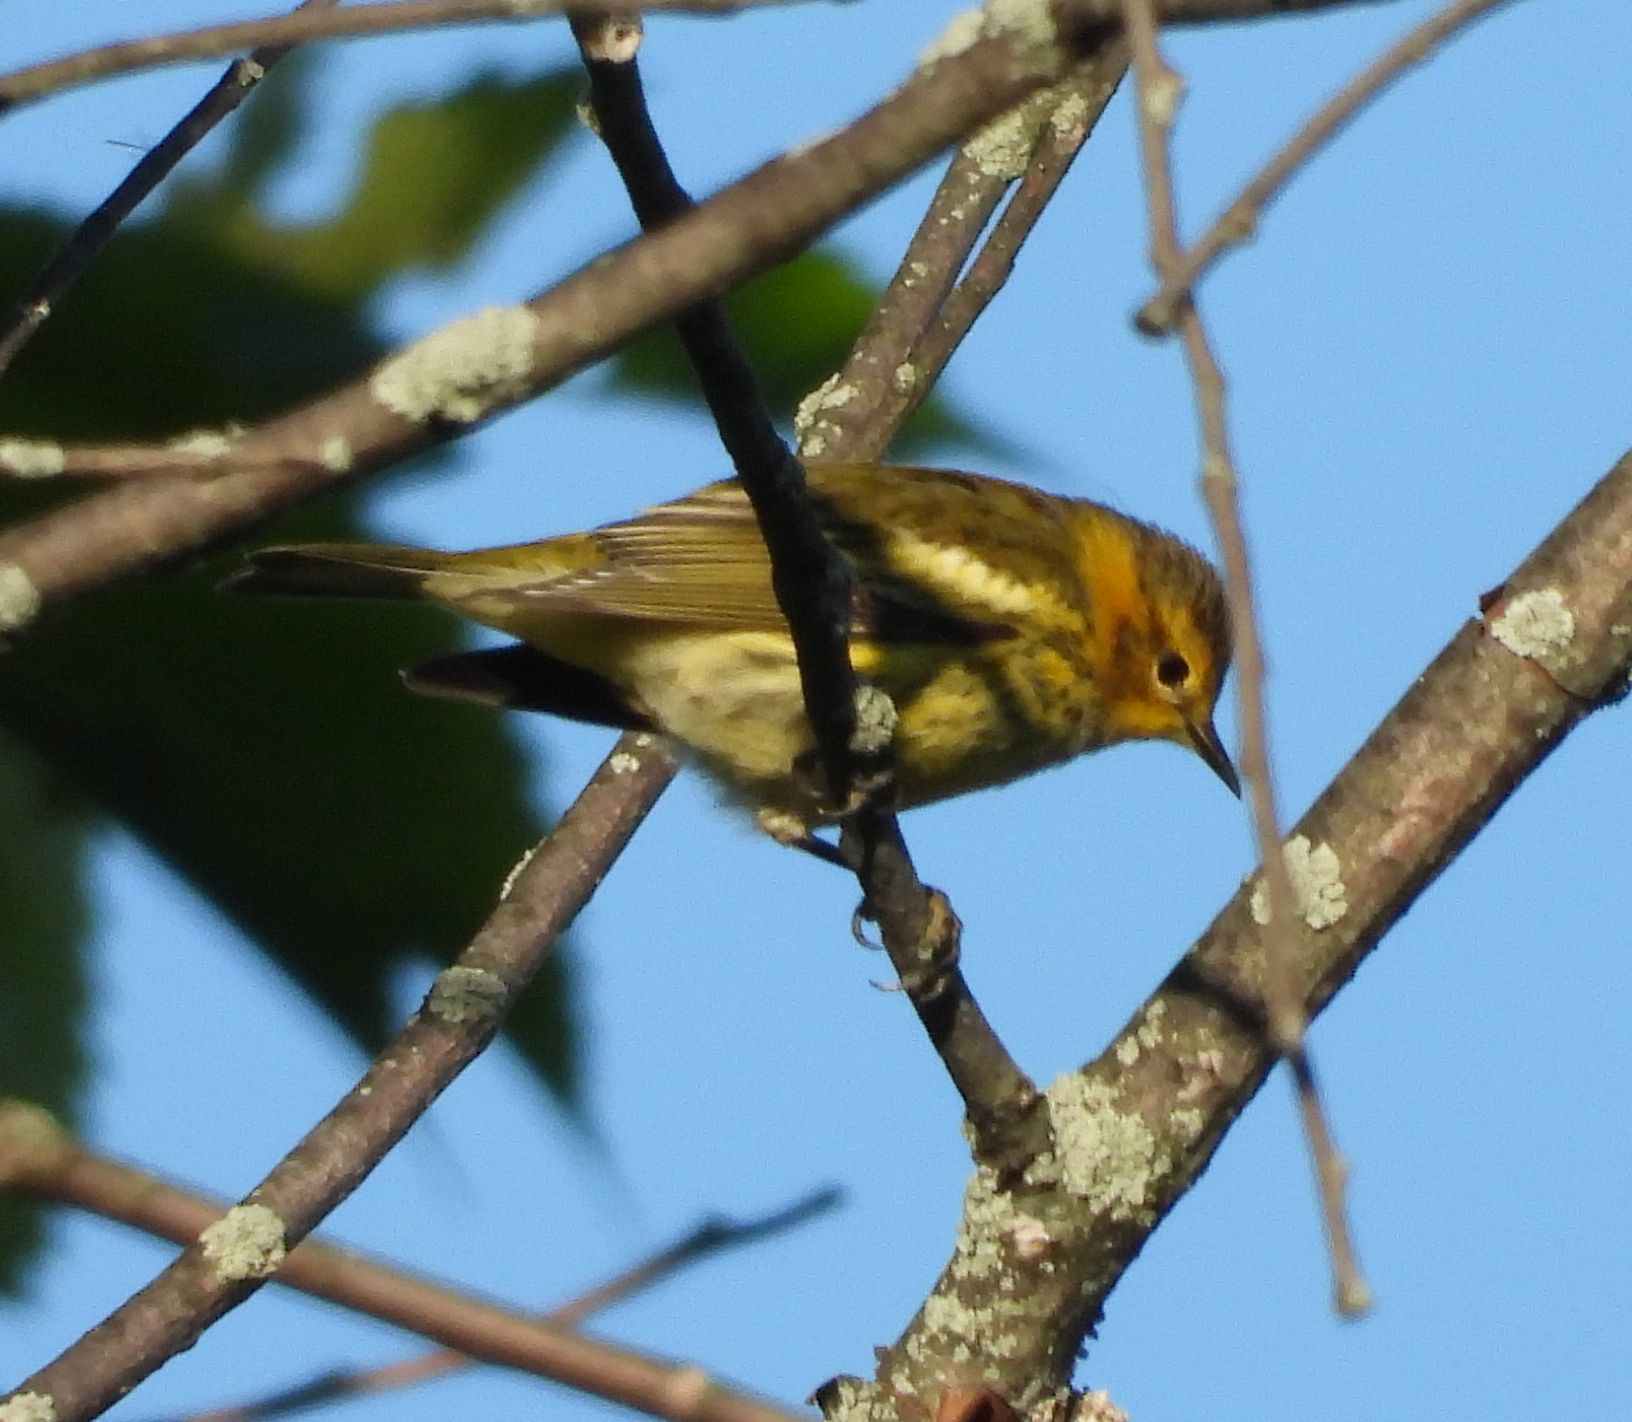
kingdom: Animalia
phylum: Chordata
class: Aves
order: Passeriformes
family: Parulidae
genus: Setophaga
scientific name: Setophaga tigrina
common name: Cape may warbler
